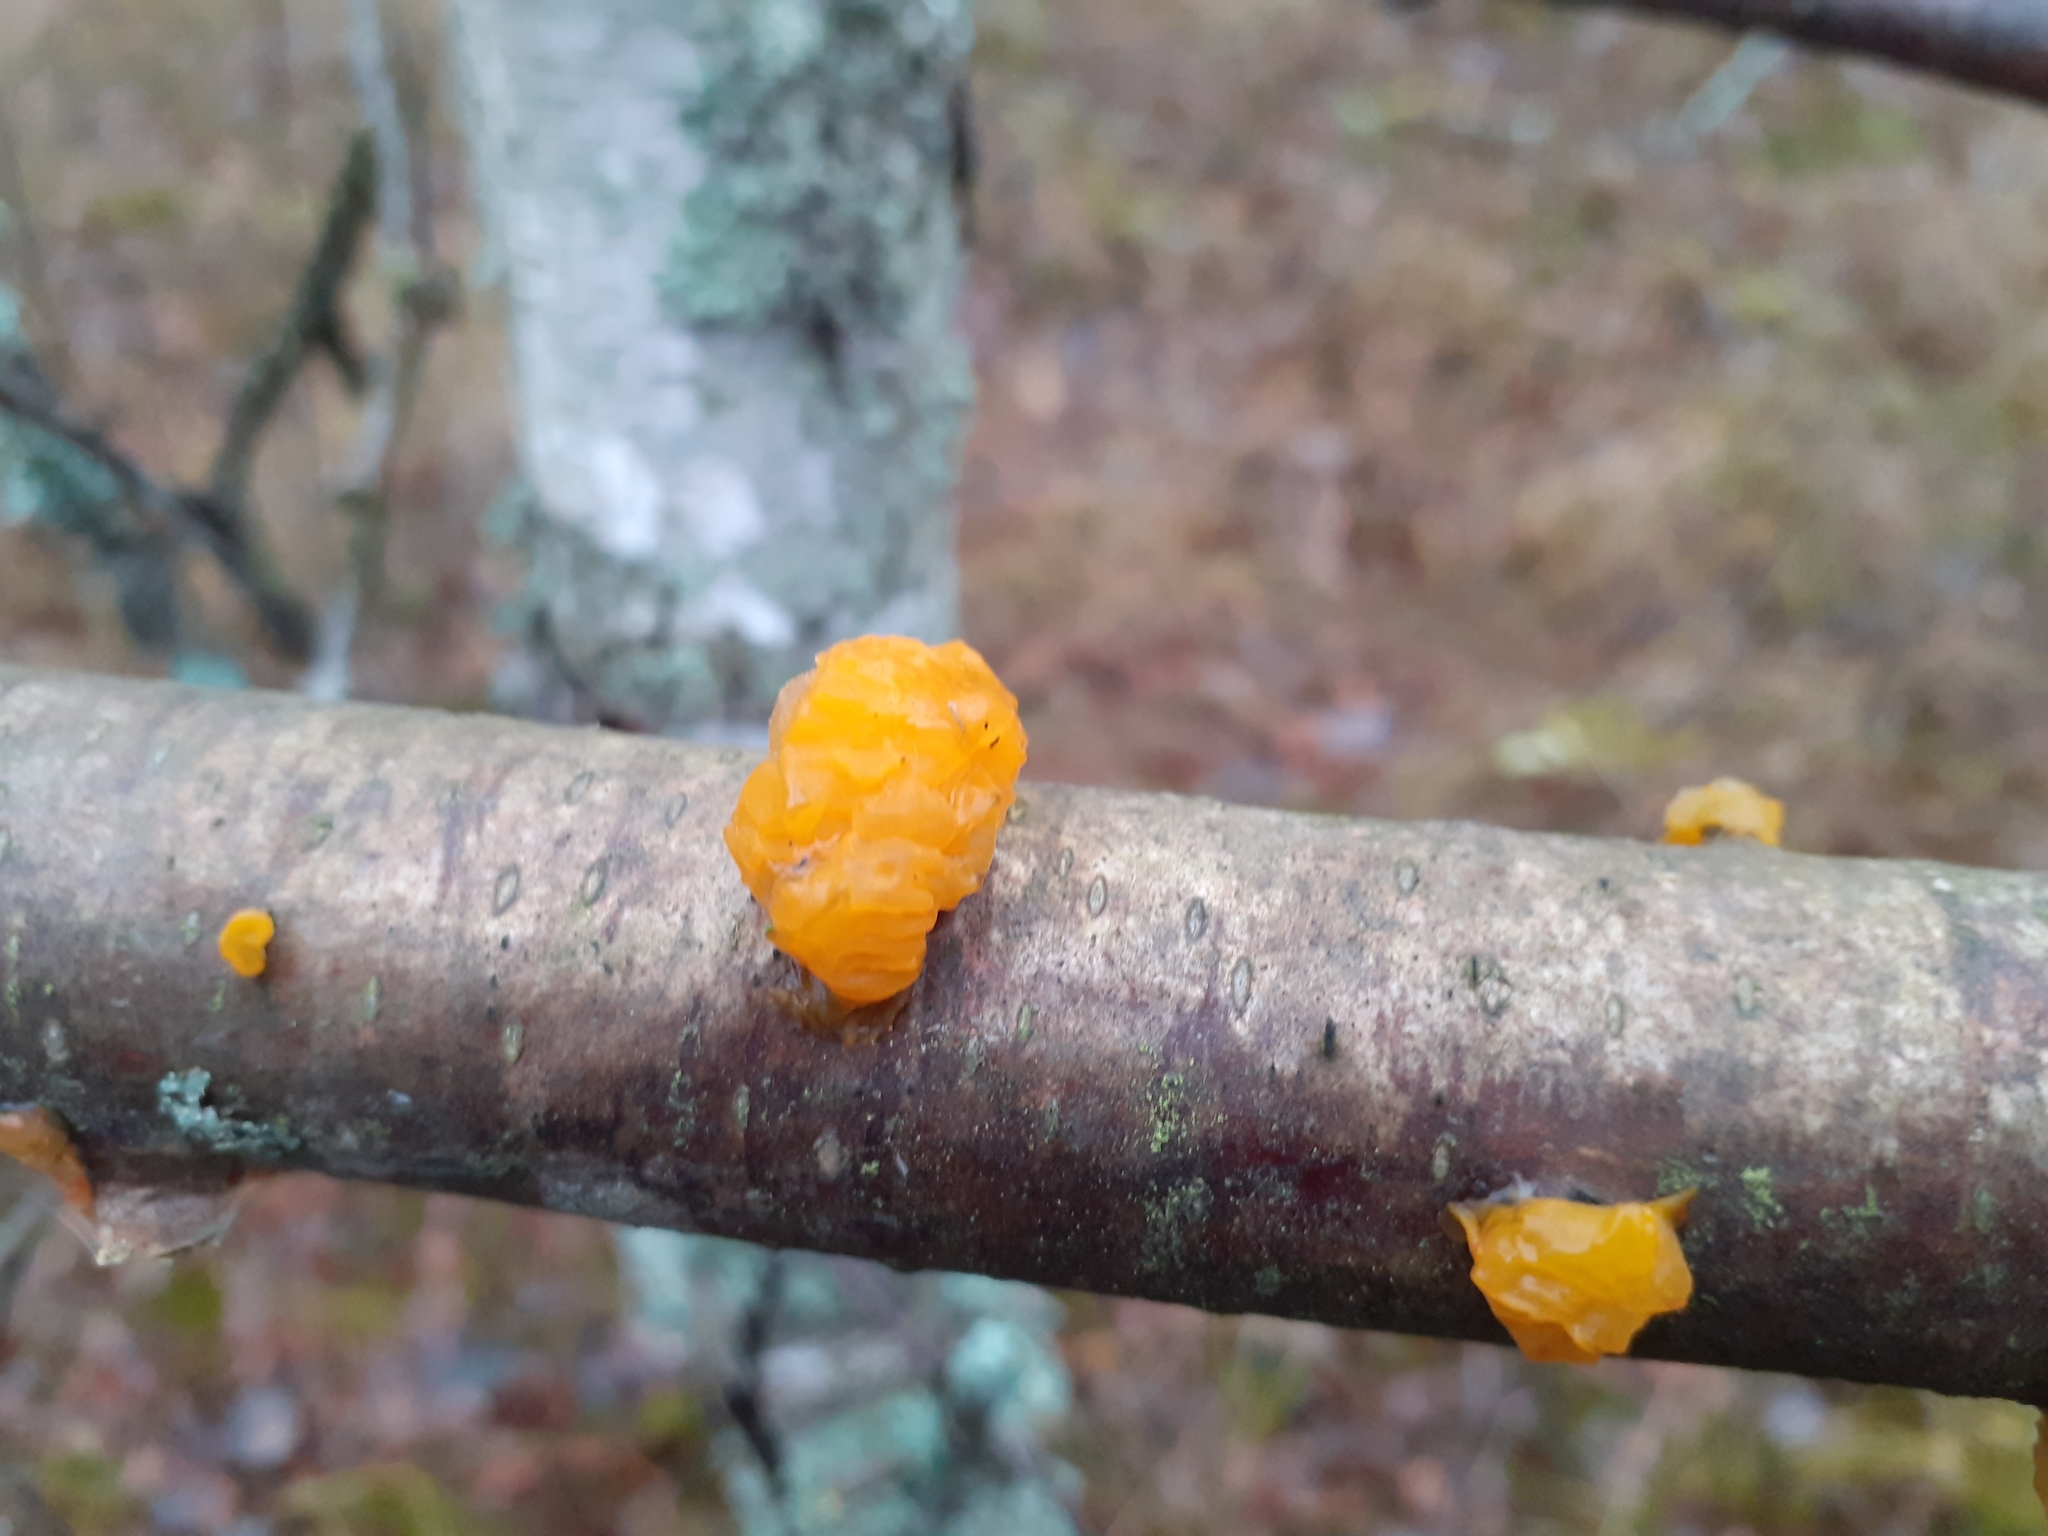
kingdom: Fungi
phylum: Basidiomycota
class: Tremellomycetes
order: Tremellales
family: Tremellaceae
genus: Tremella
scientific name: Tremella mesenterica
